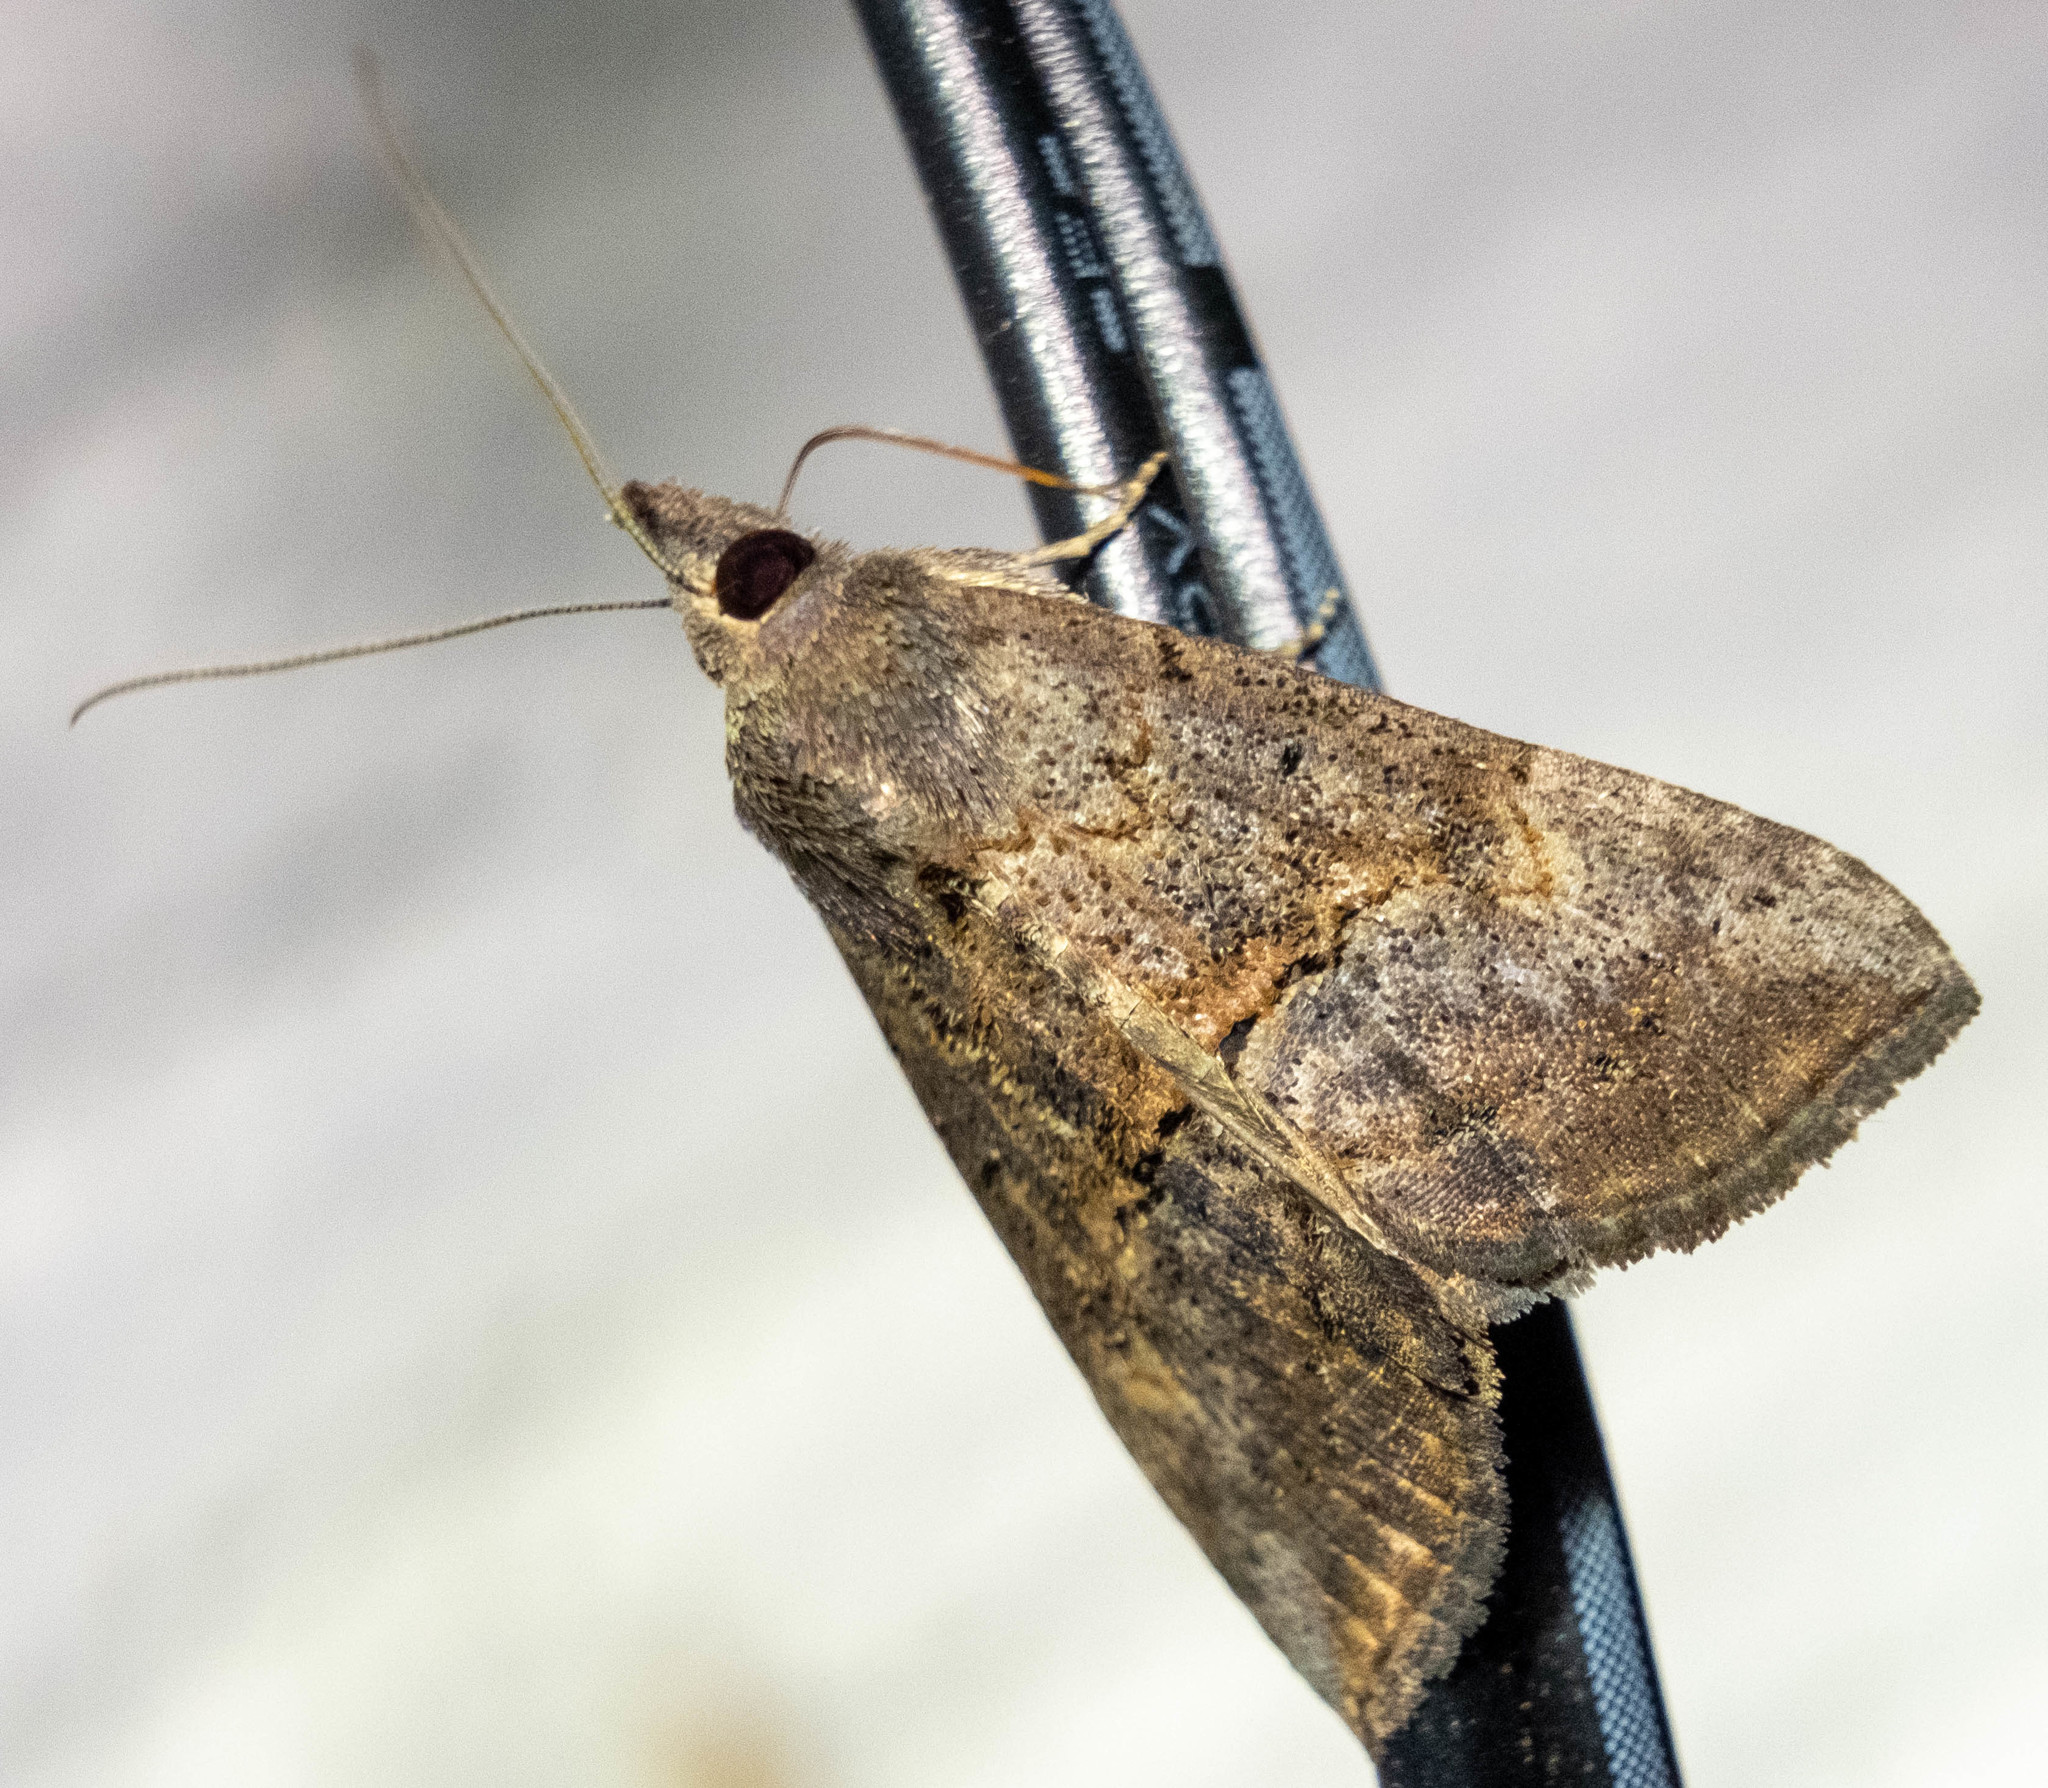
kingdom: Animalia
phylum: Arthropoda
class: Insecta
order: Lepidoptera
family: Erebidae
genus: Hypena
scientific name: Hypena scabra
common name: Green cloverworm
